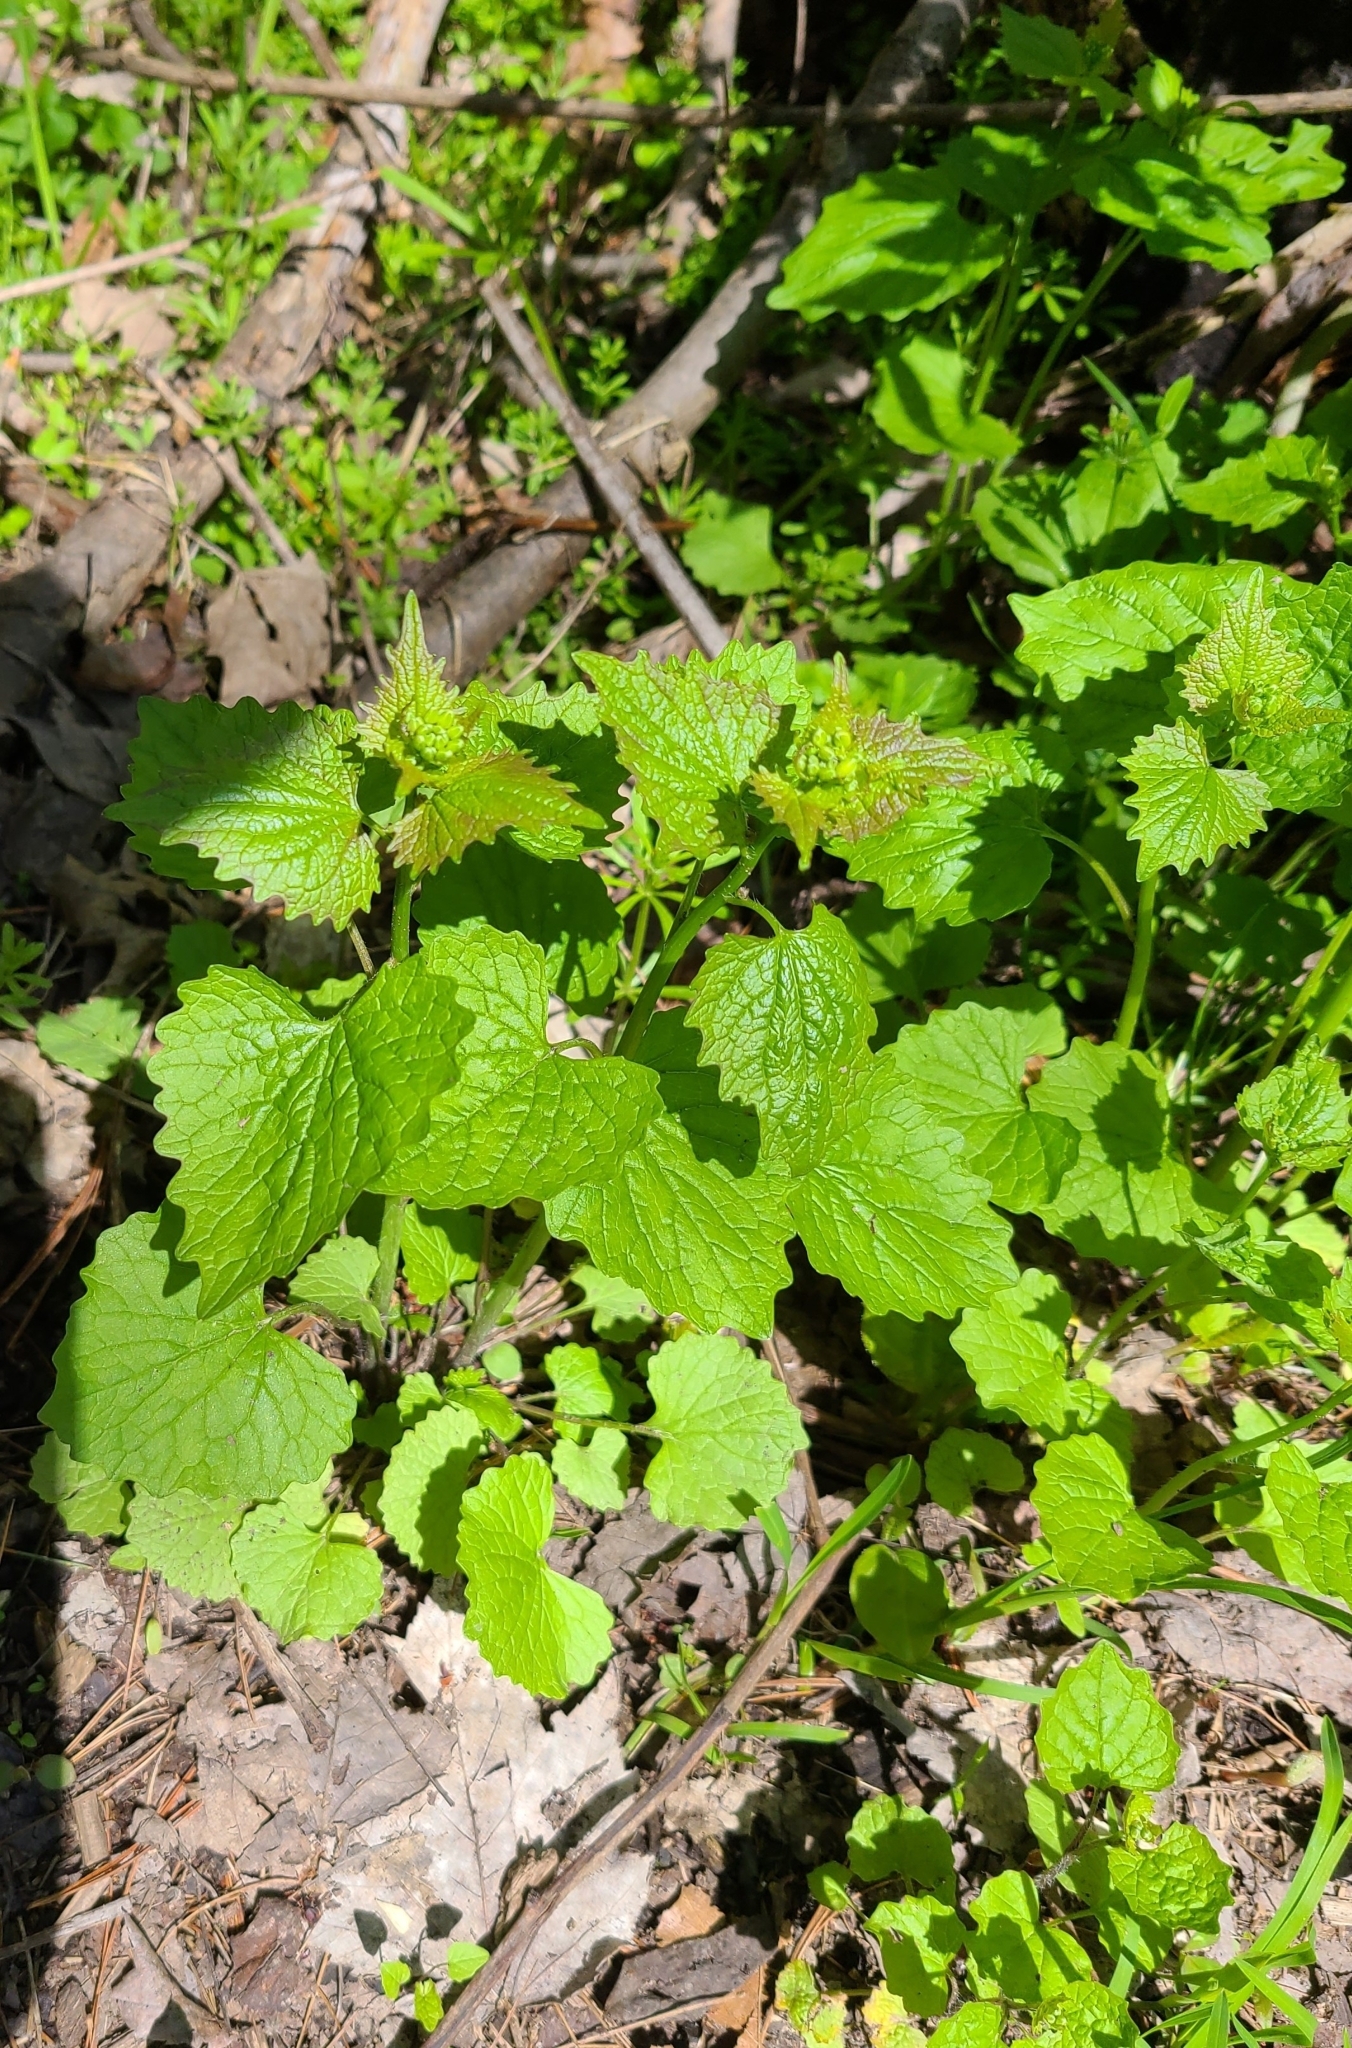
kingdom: Plantae
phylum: Tracheophyta
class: Magnoliopsida
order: Brassicales
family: Brassicaceae
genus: Alliaria
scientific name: Alliaria petiolata
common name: Garlic mustard
